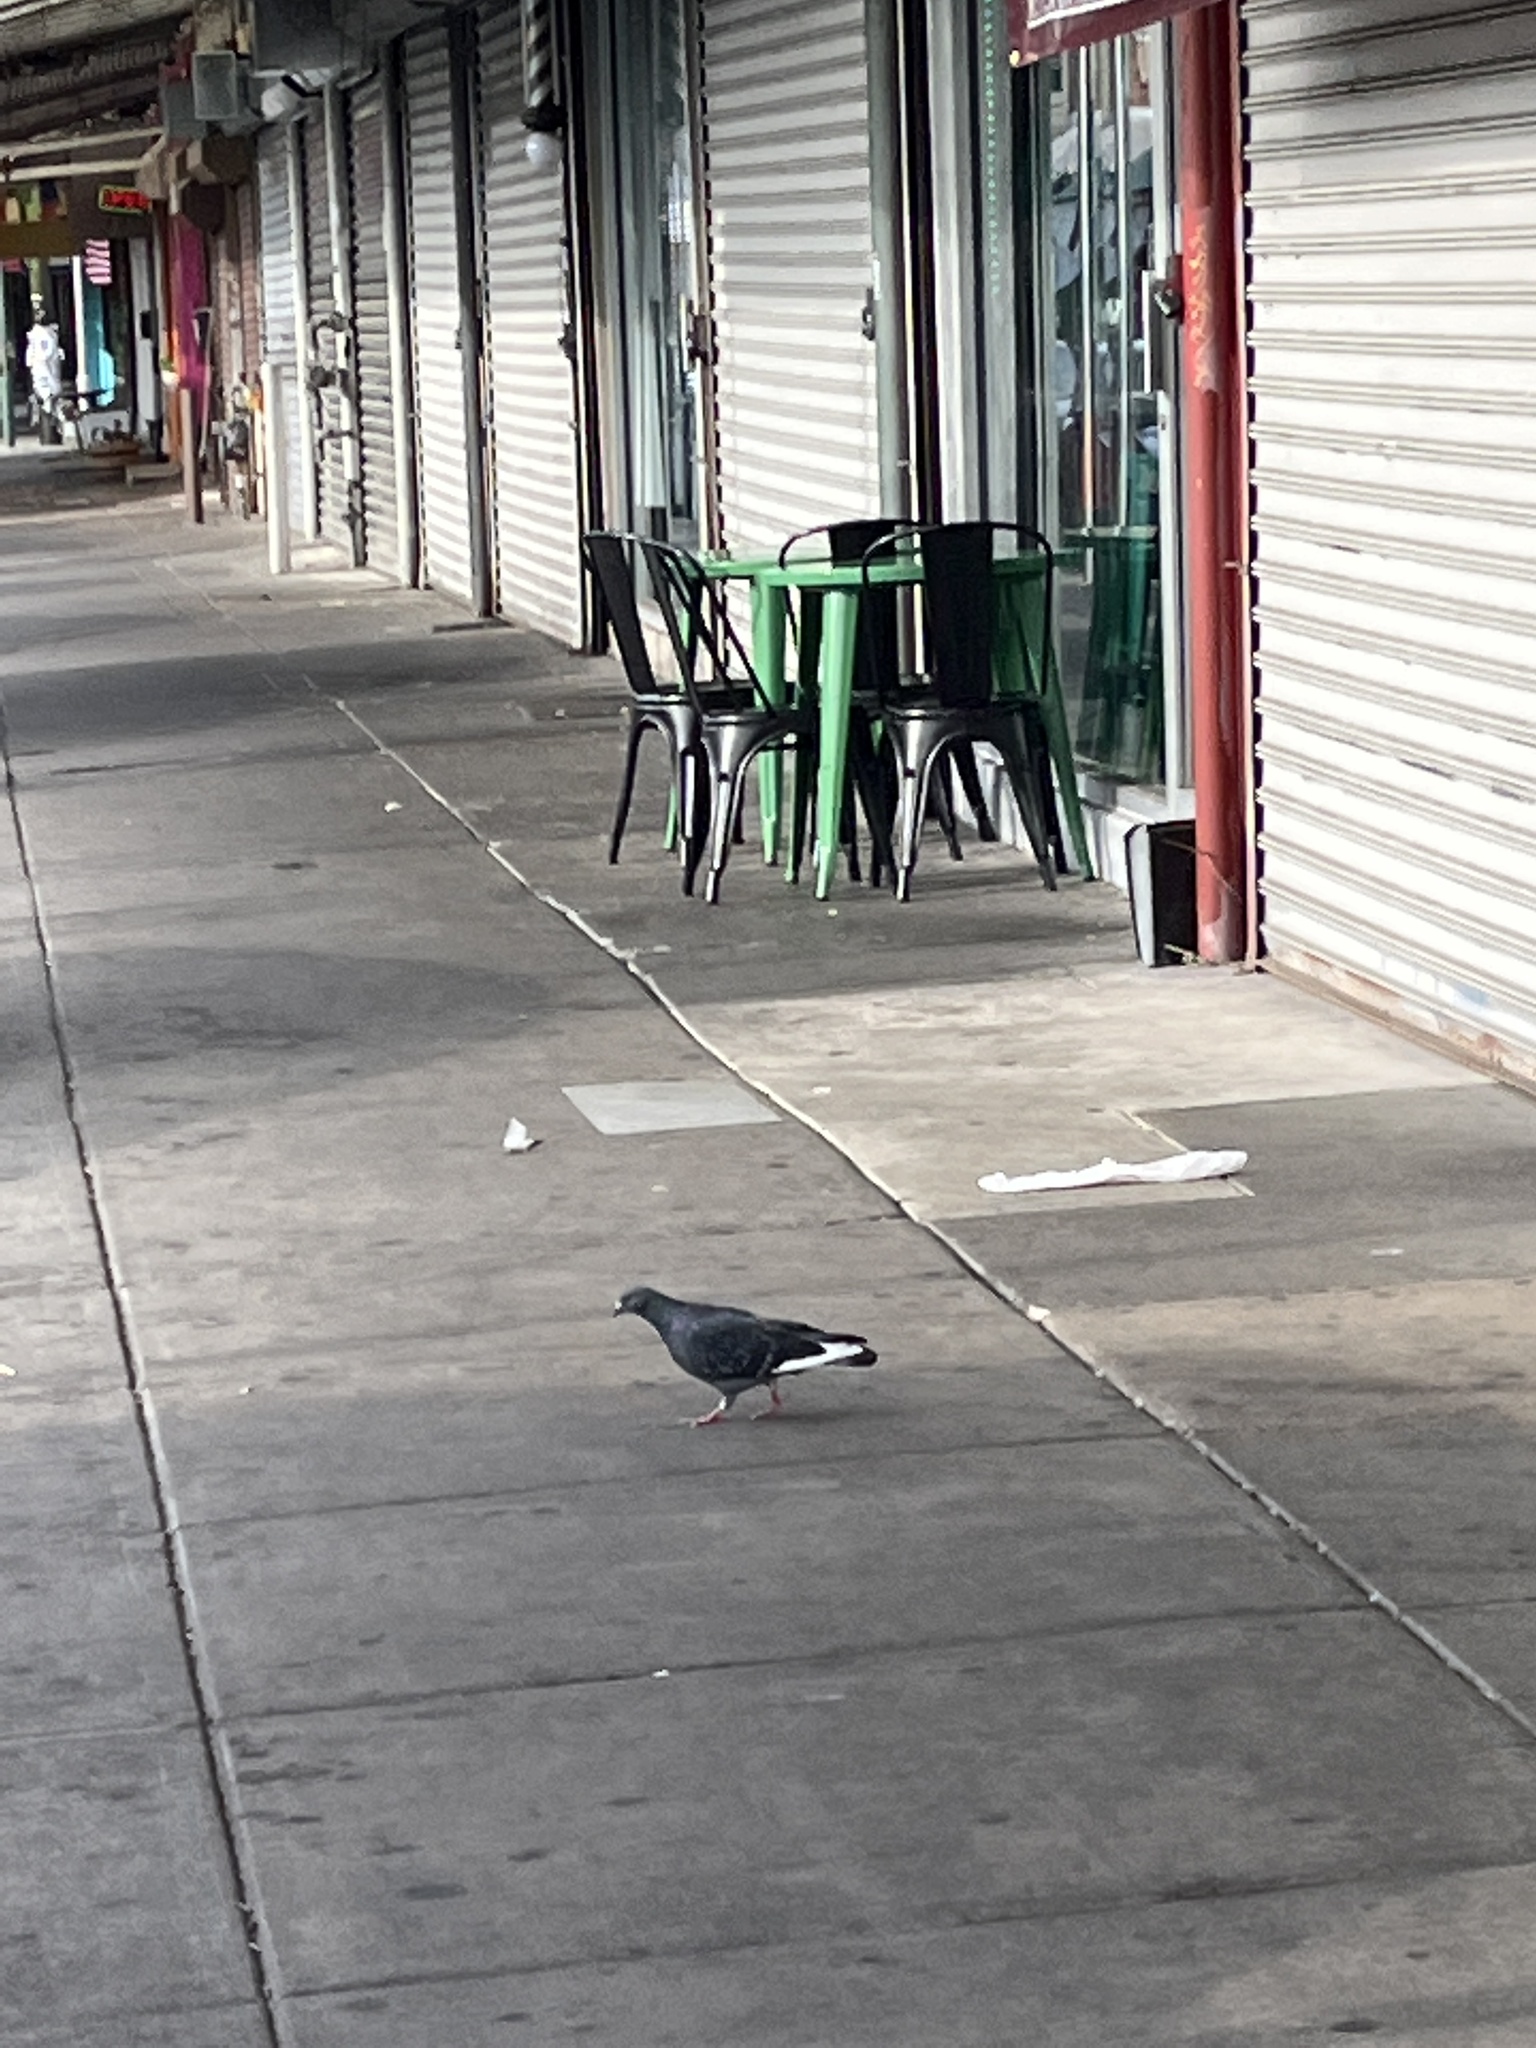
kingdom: Animalia
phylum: Chordata
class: Aves
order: Columbiformes
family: Columbidae
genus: Columba
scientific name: Columba livia
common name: Rock pigeon
